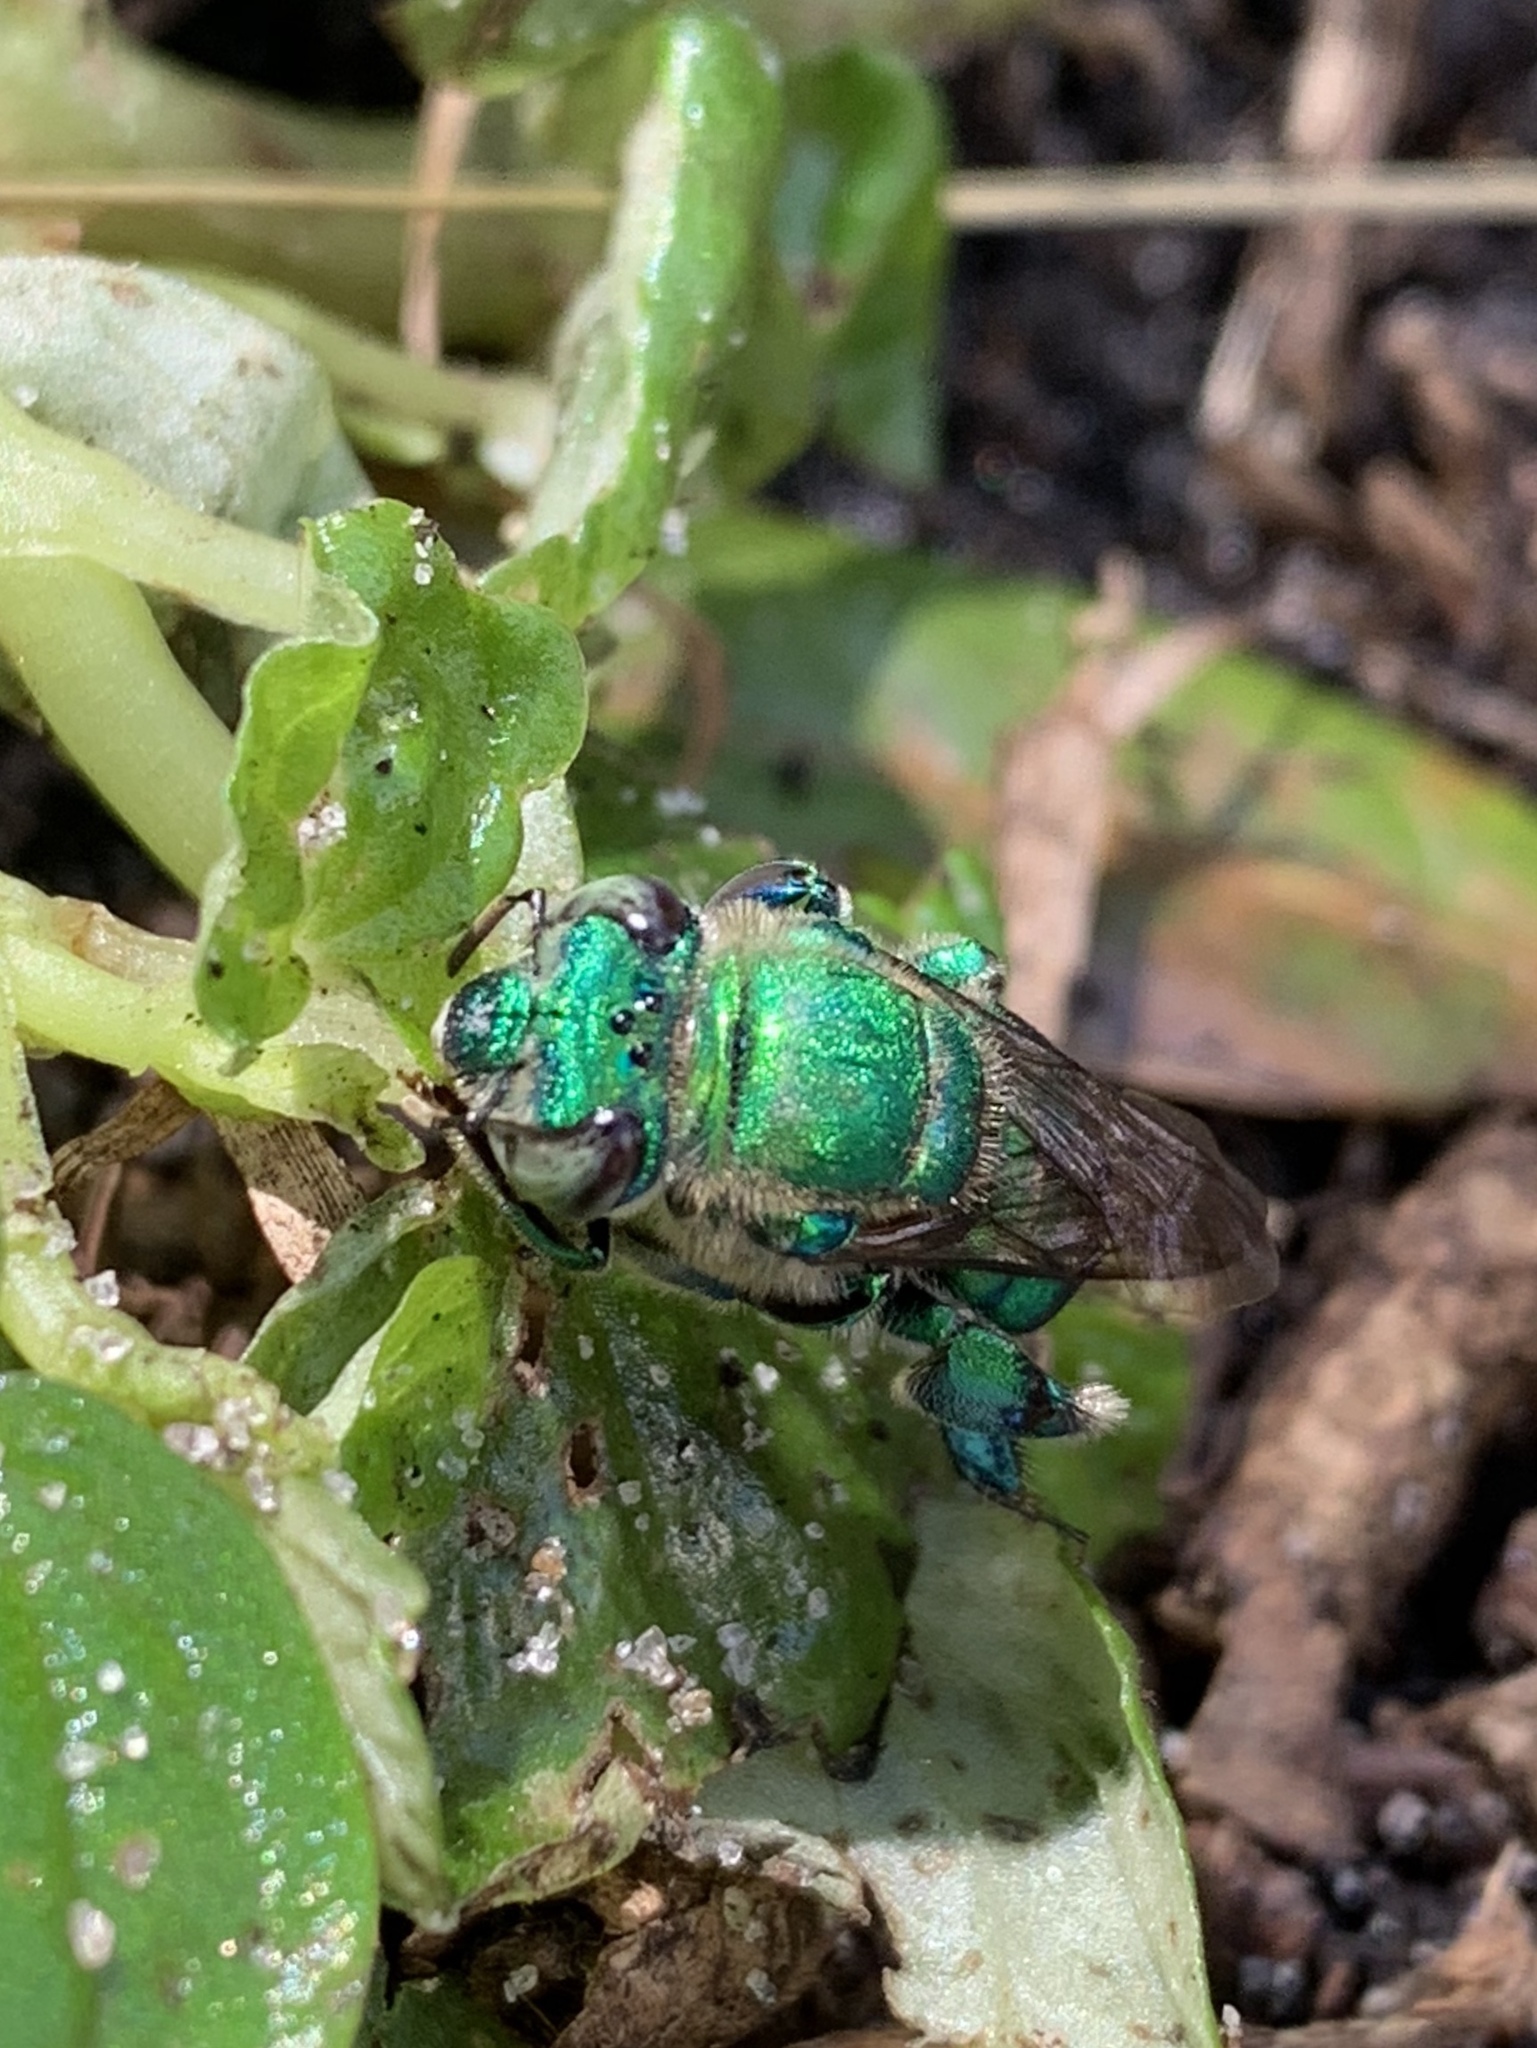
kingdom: Animalia
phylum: Arthropoda
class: Insecta
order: Hymenoptera
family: Apidae
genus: Euglossa
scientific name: Euglossa dilemma
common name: Green orchid bee
